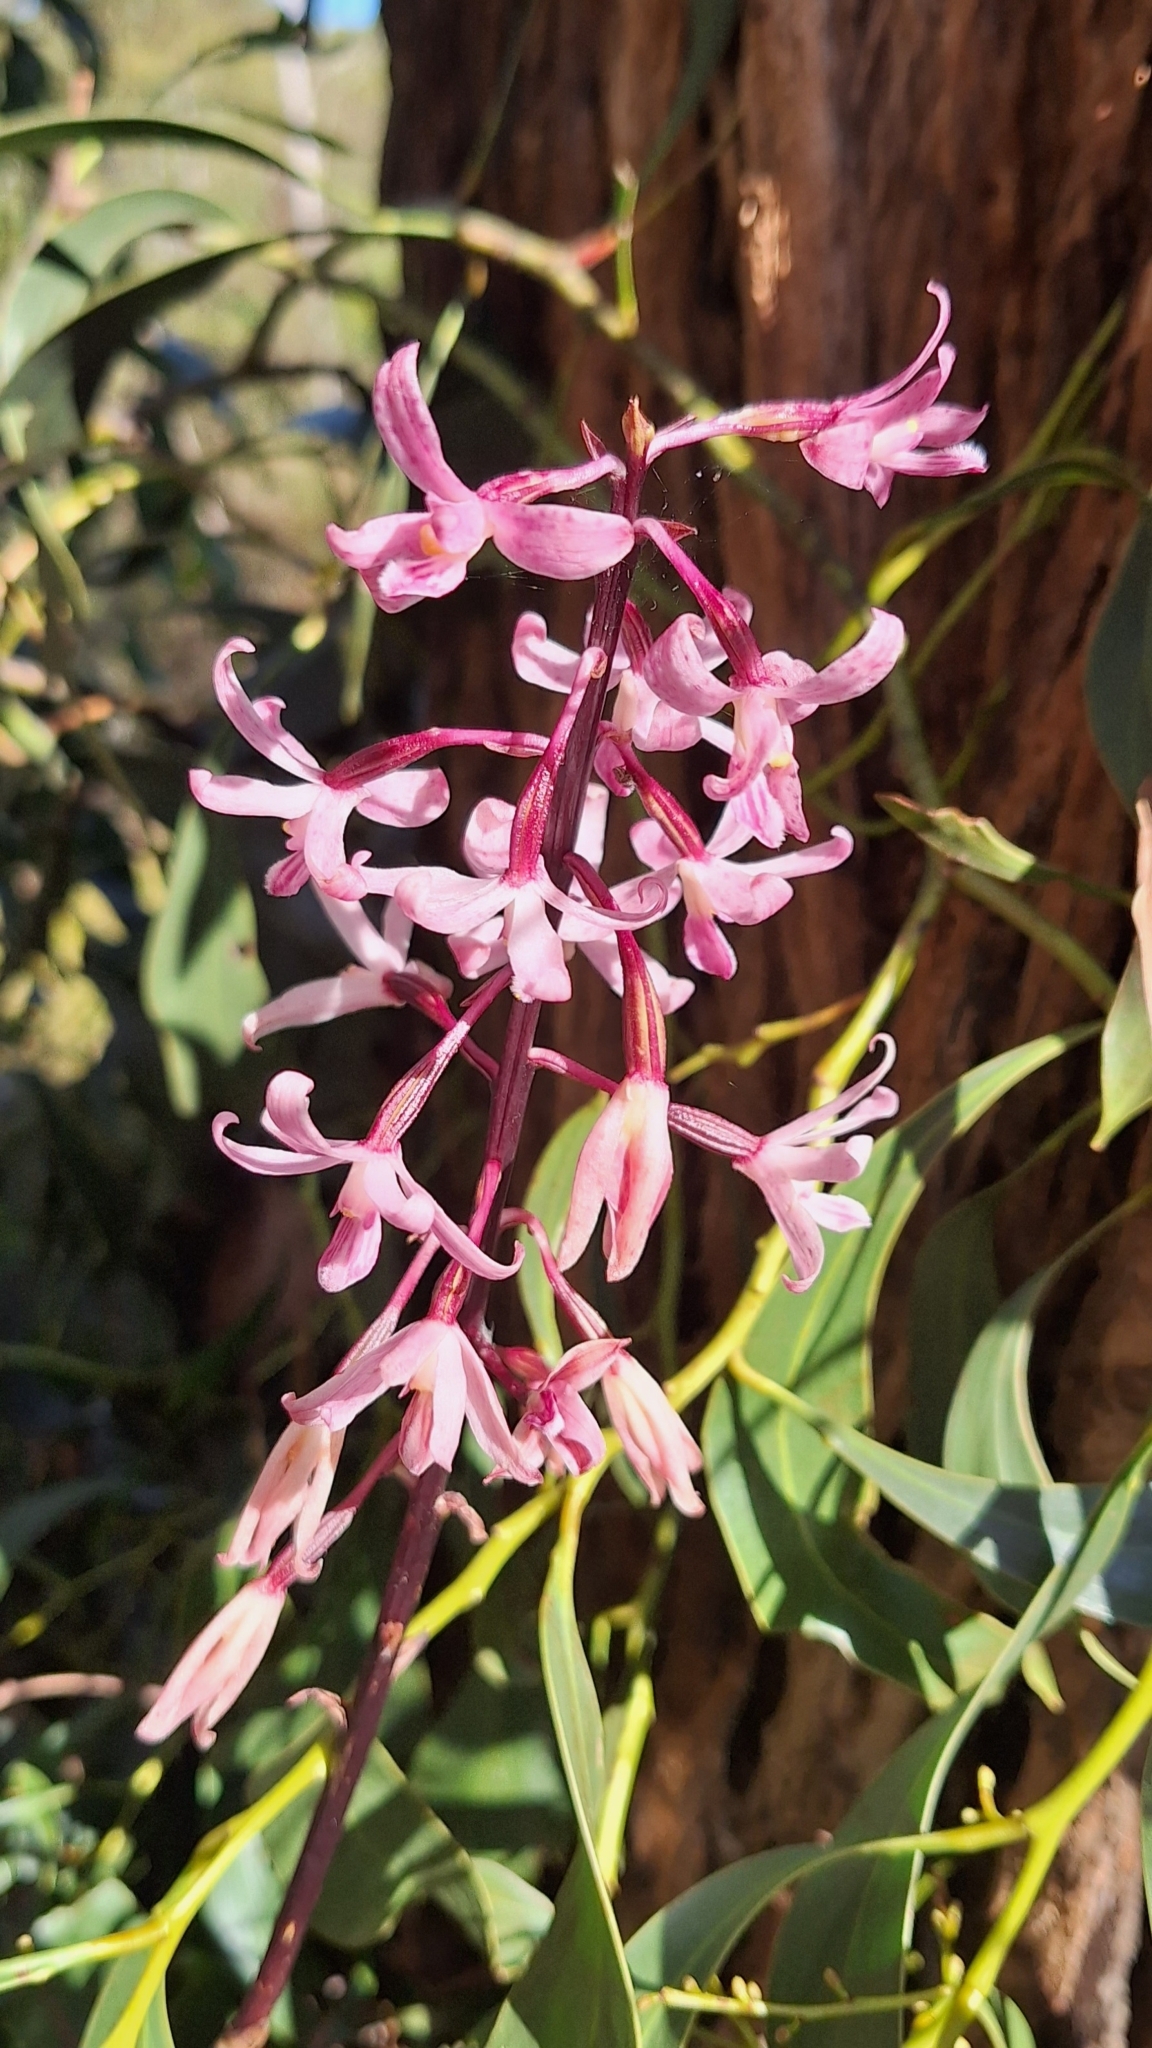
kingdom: Plantae
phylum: Tracheophyta
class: Liliopsida
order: Asparagales
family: Orchidaceae
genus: Dipodium
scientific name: Dipodium roseum
